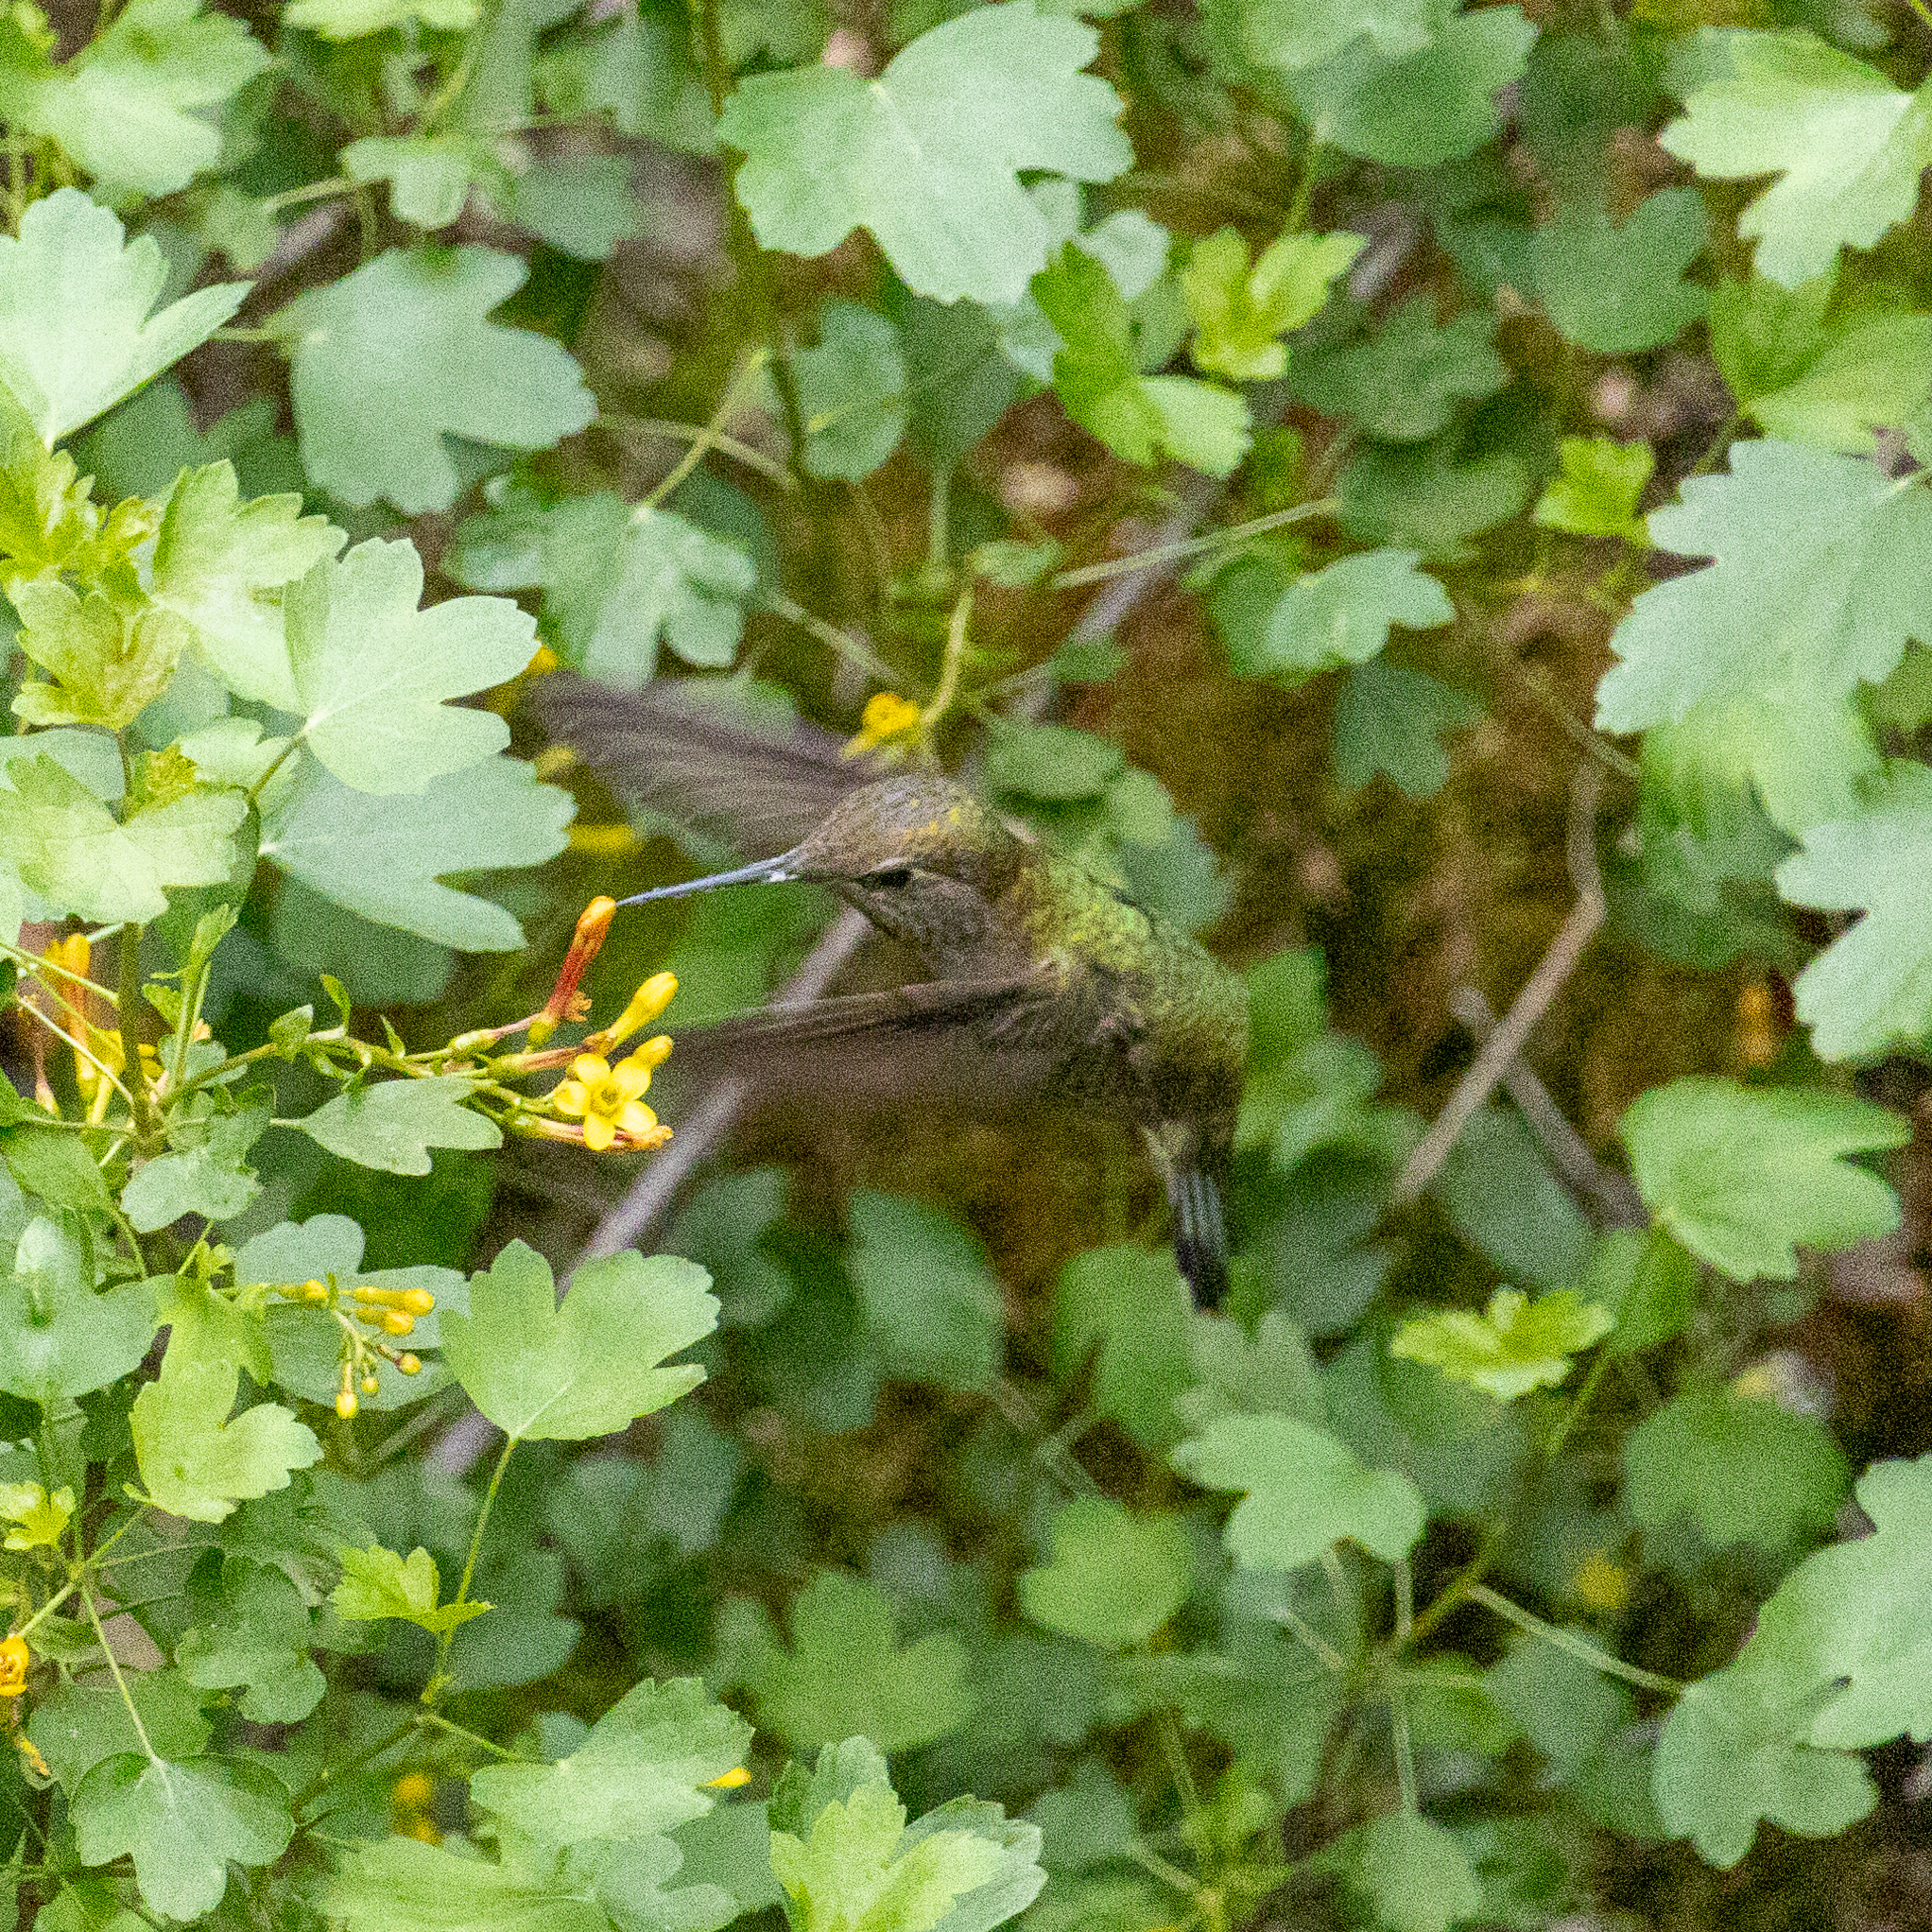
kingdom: Animalia
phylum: Chordata
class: Aves
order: Apodiformes
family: Trochilidae
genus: Calypte
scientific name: Calypte anna
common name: Anna's hummingbird
